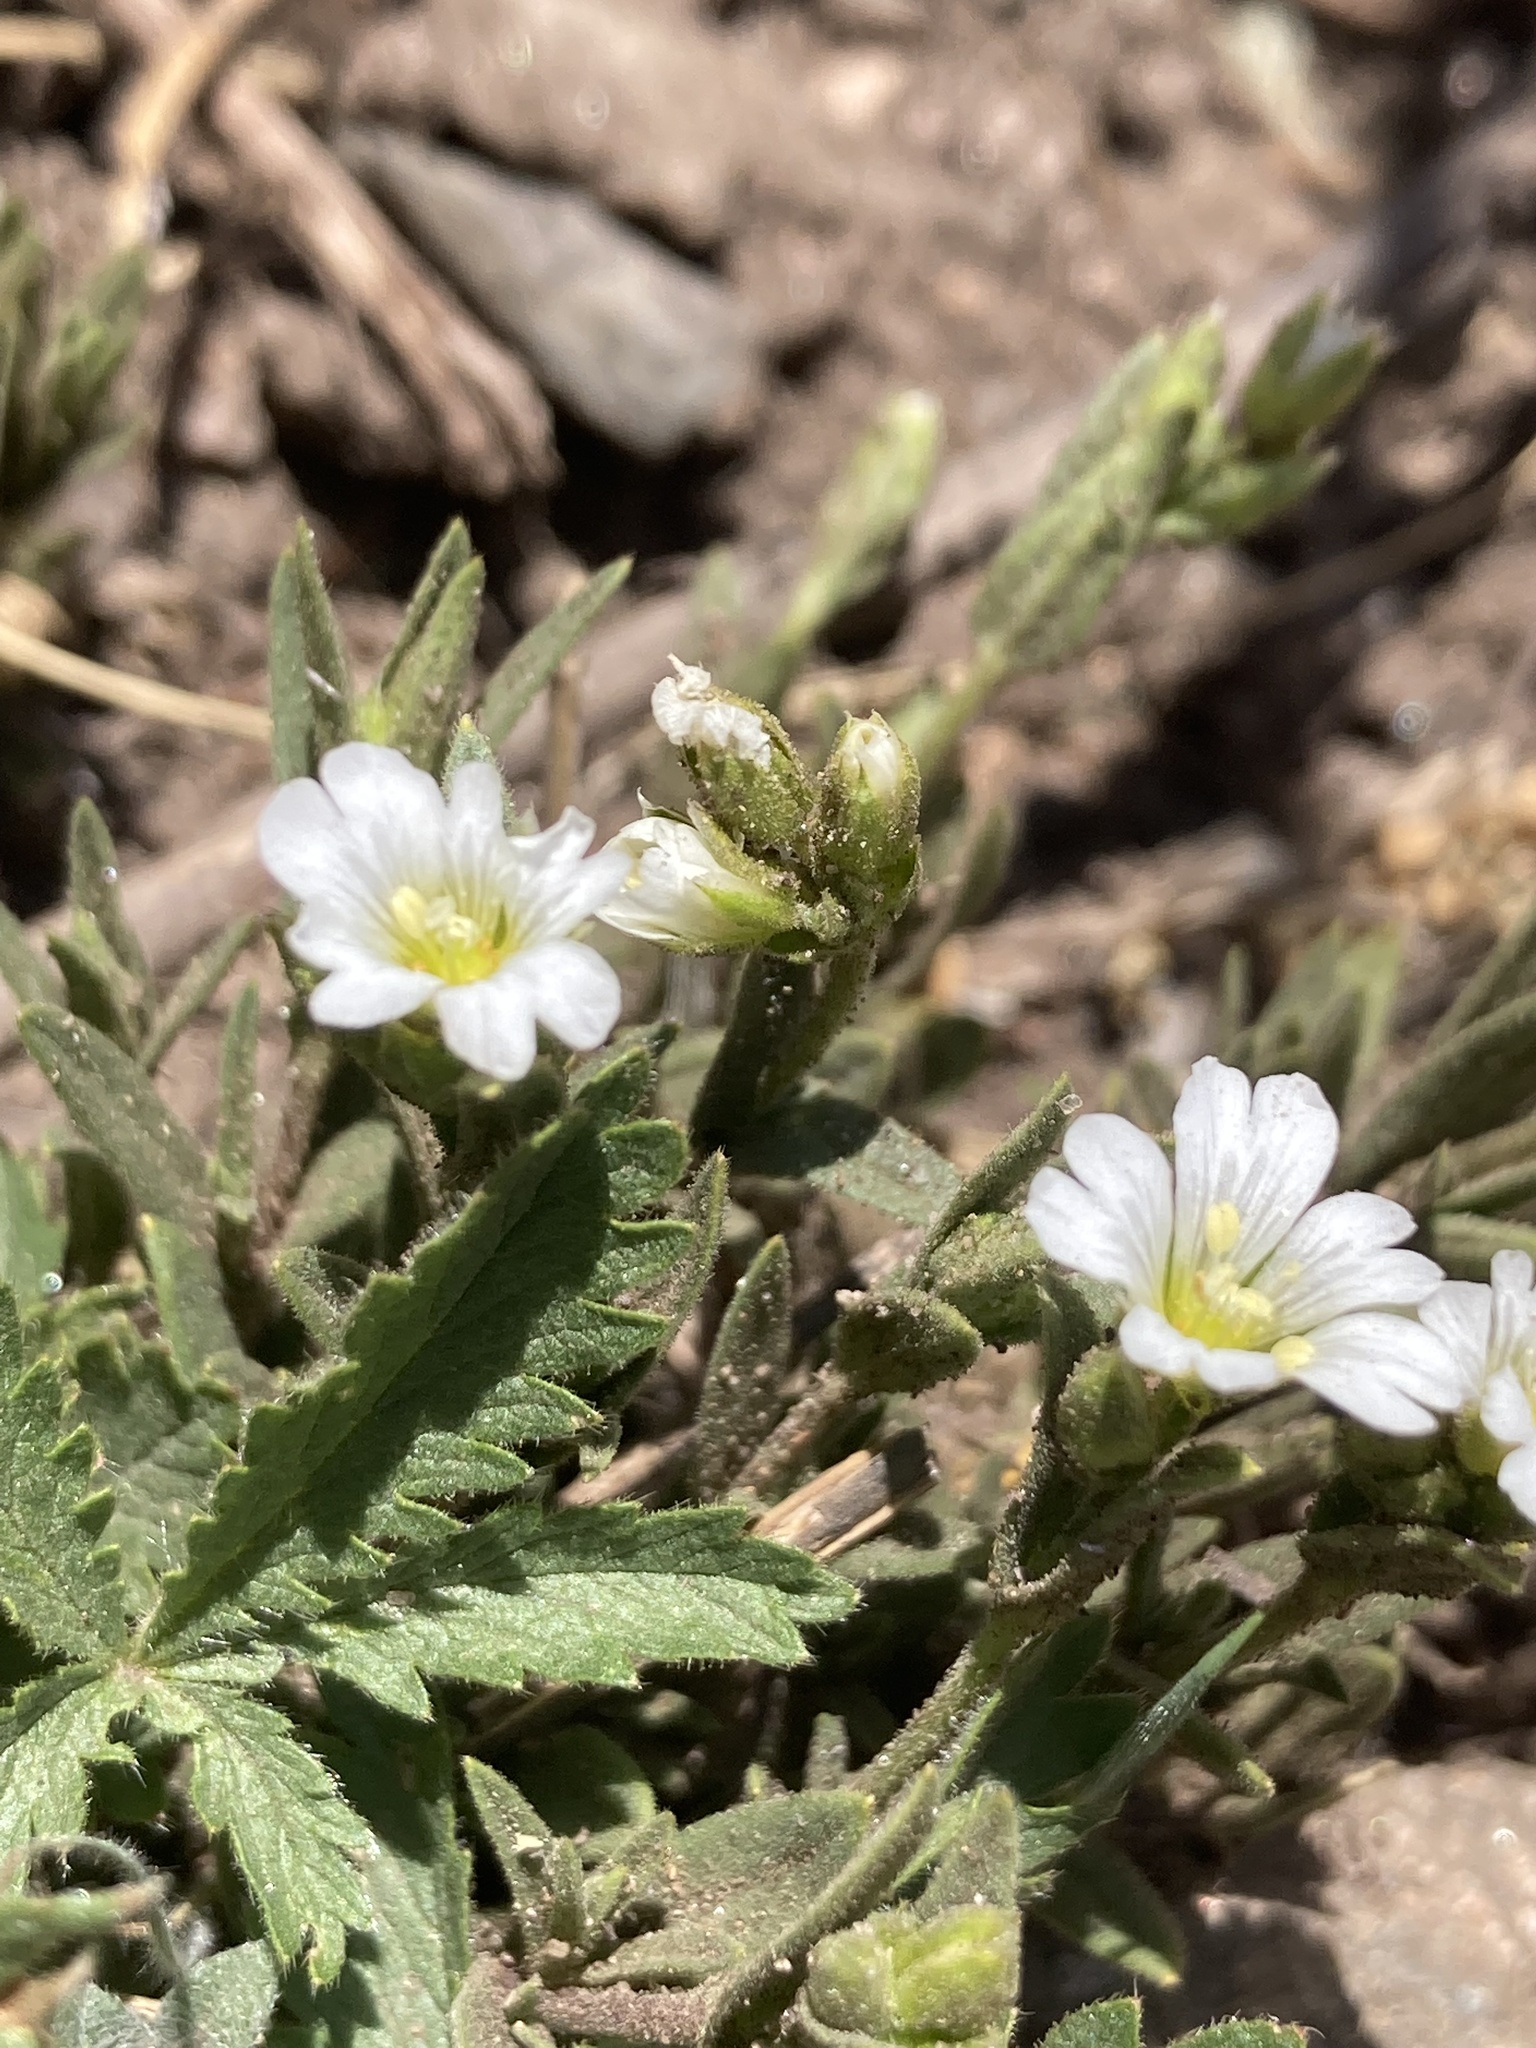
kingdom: Plantae
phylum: Tracheophyta
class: Magnoliopsida
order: Caryophyllales
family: Caryophyllaceae
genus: Cerastium
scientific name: Cerastium arvense
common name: Field mouse-ear
